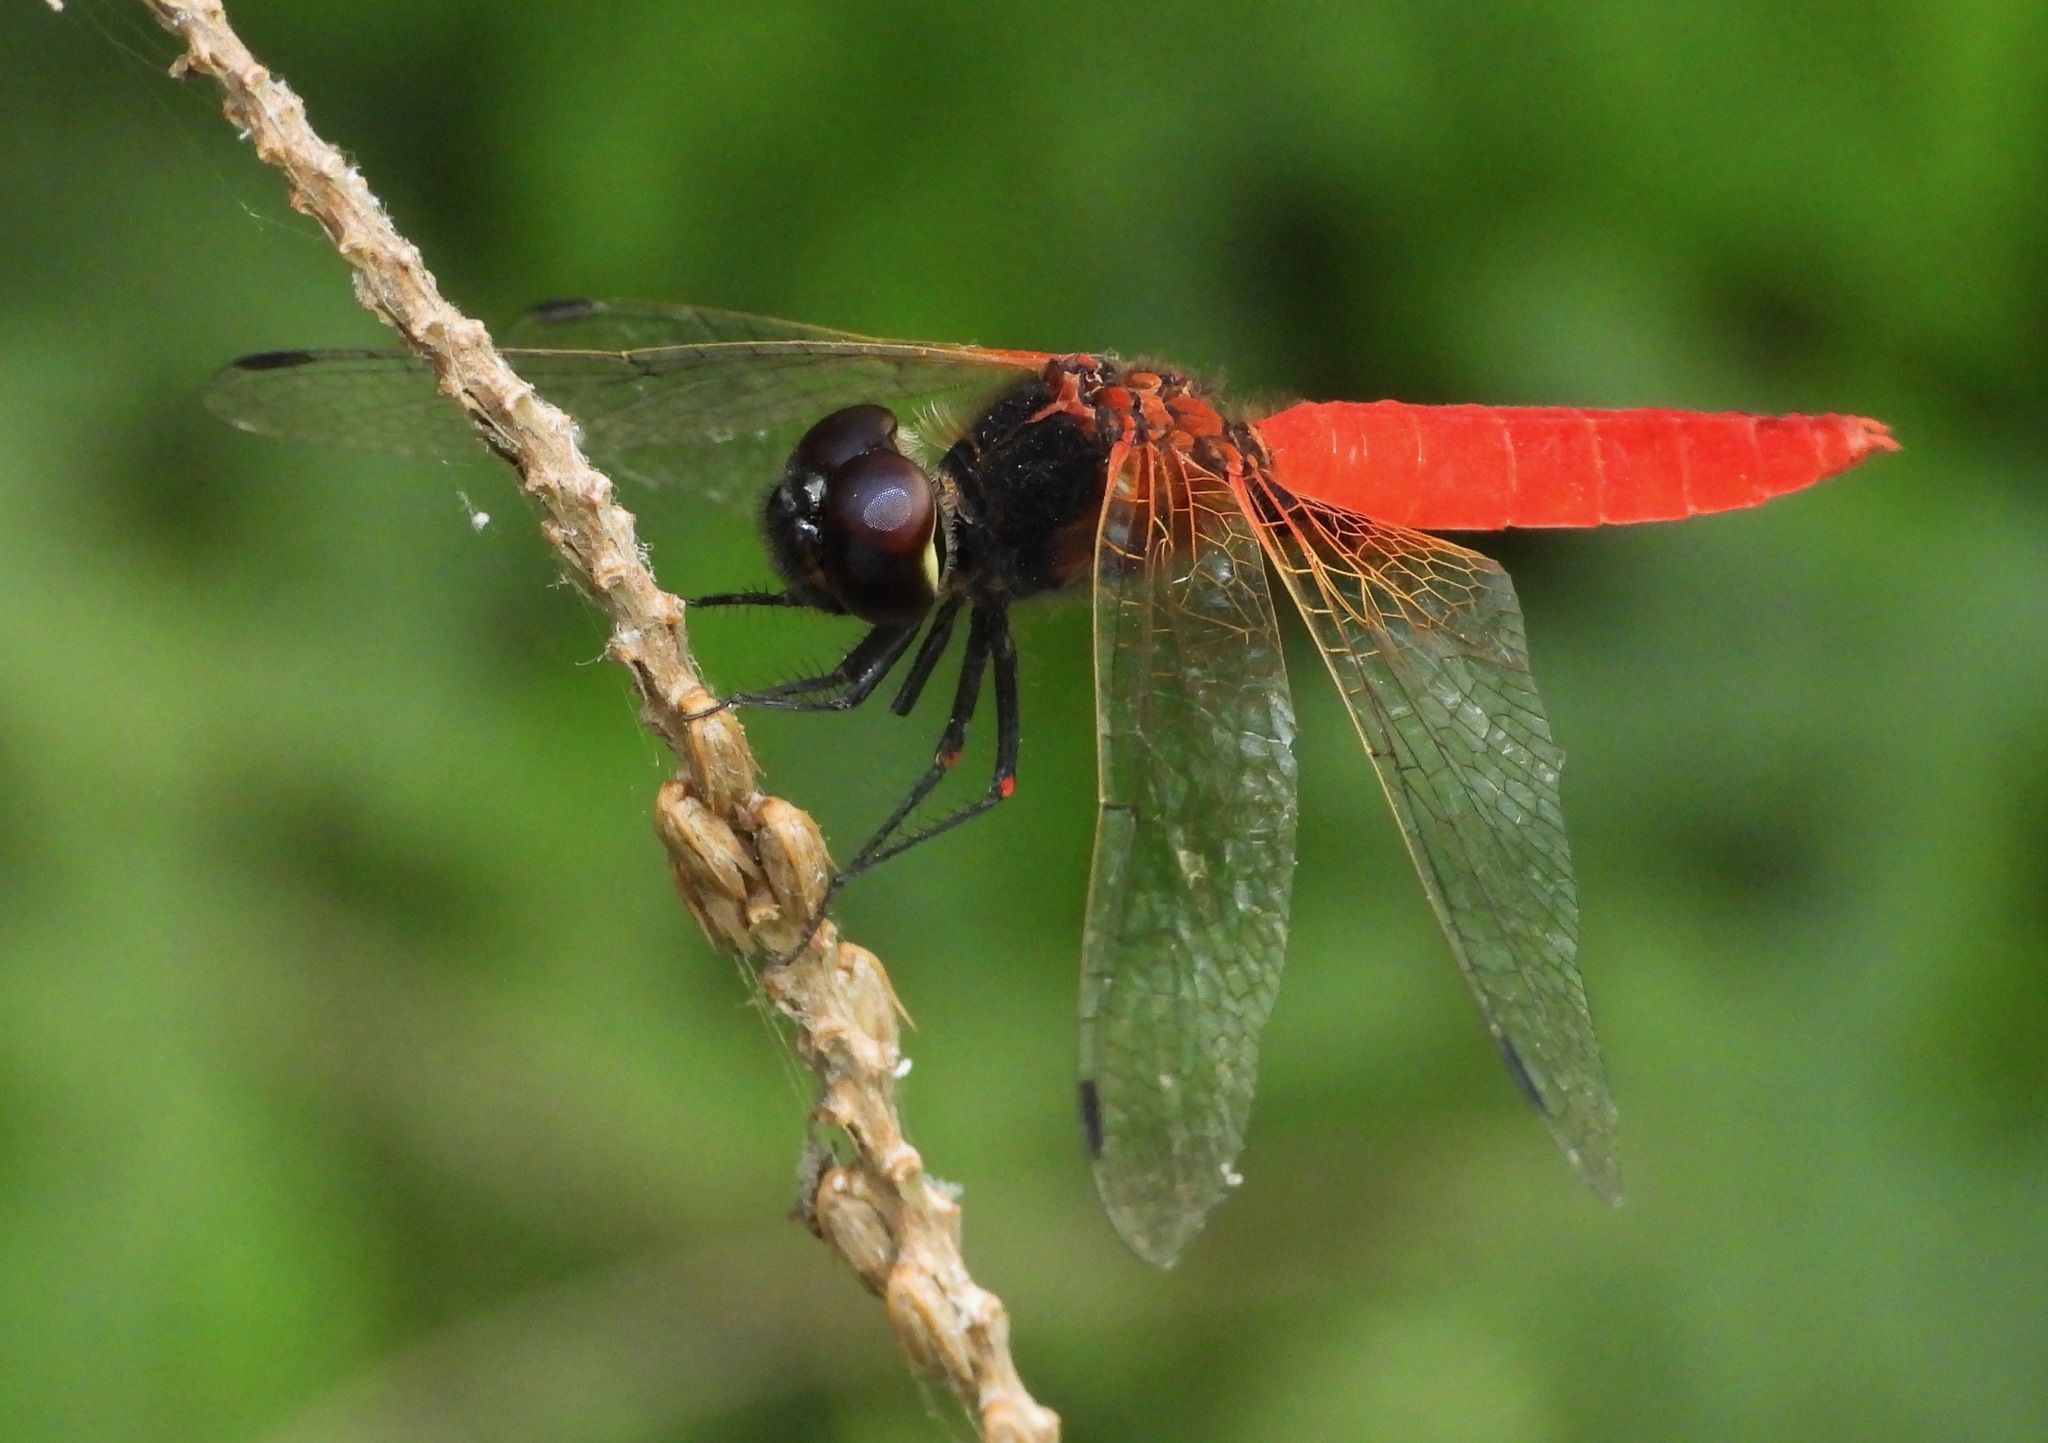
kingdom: Animalia
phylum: Arthropoda
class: Insecta
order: Odonata
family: Libellulidae
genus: Aethriamanta
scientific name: Aethriamanta brevipennis
